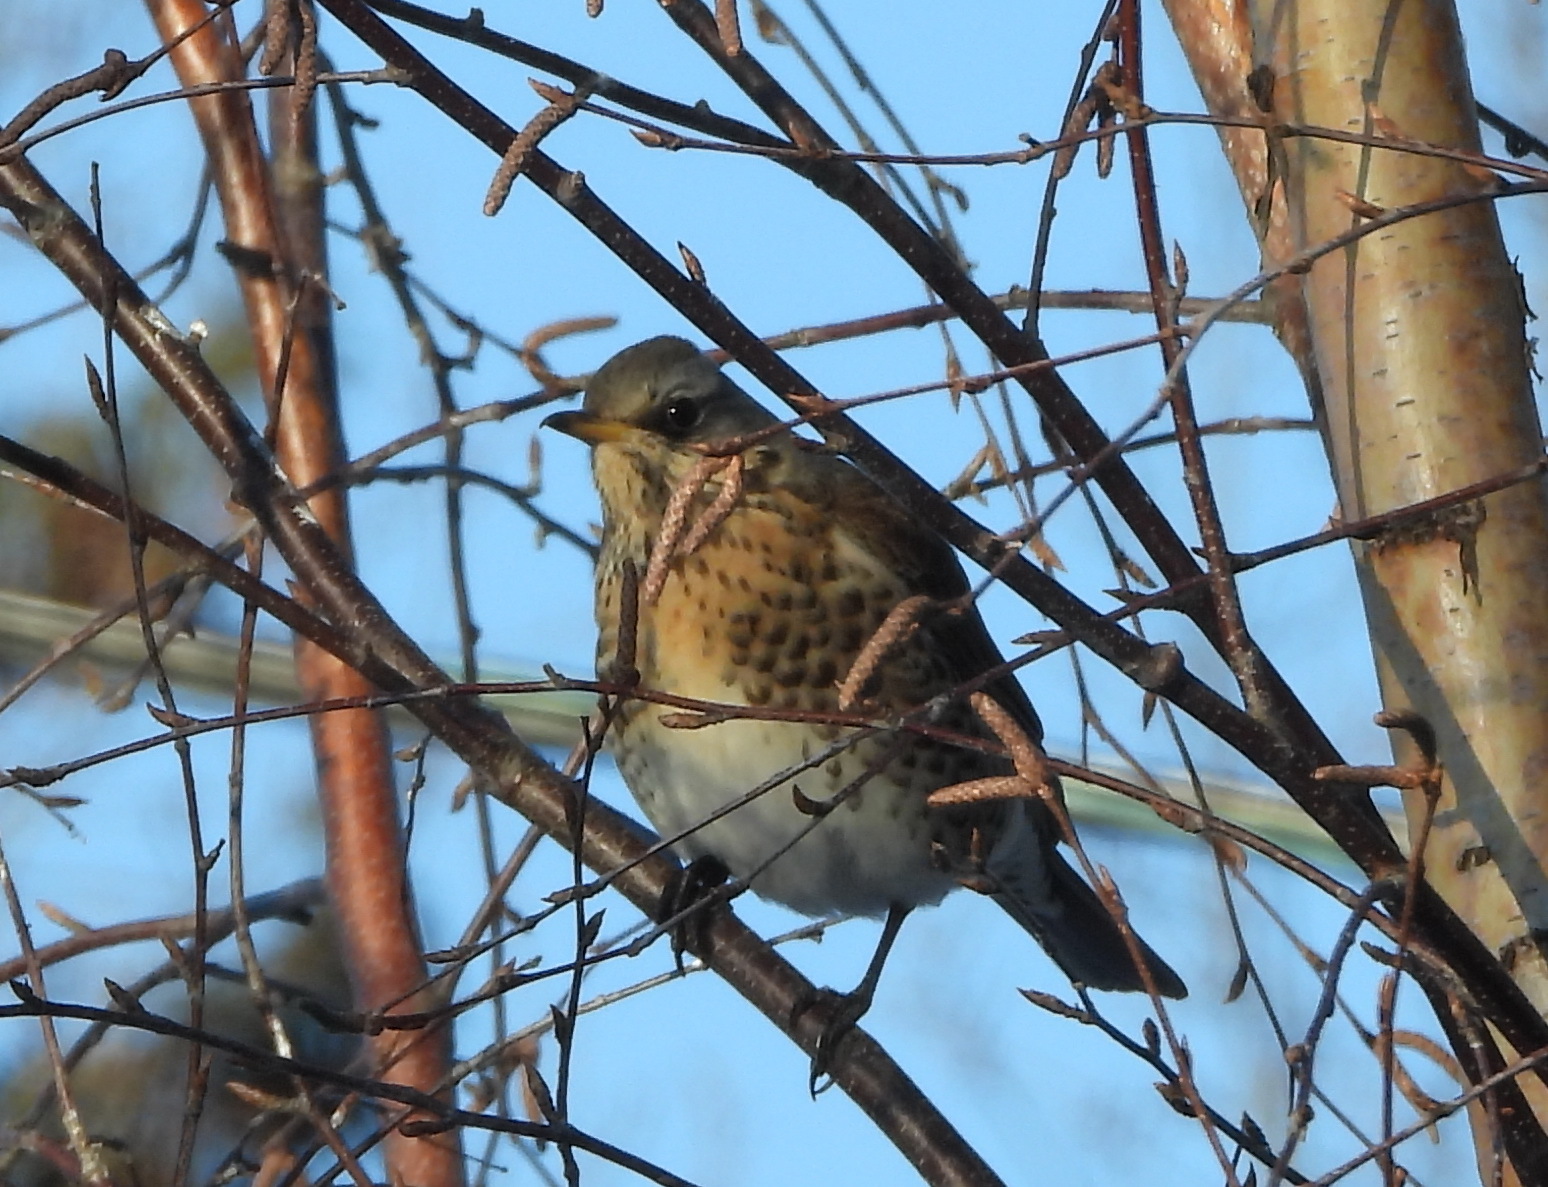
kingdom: Animalia
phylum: Chordata
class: Aves
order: Passeriformes
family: Turdidae
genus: Turdus
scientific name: Turdus pilaris
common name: Fieldfare
